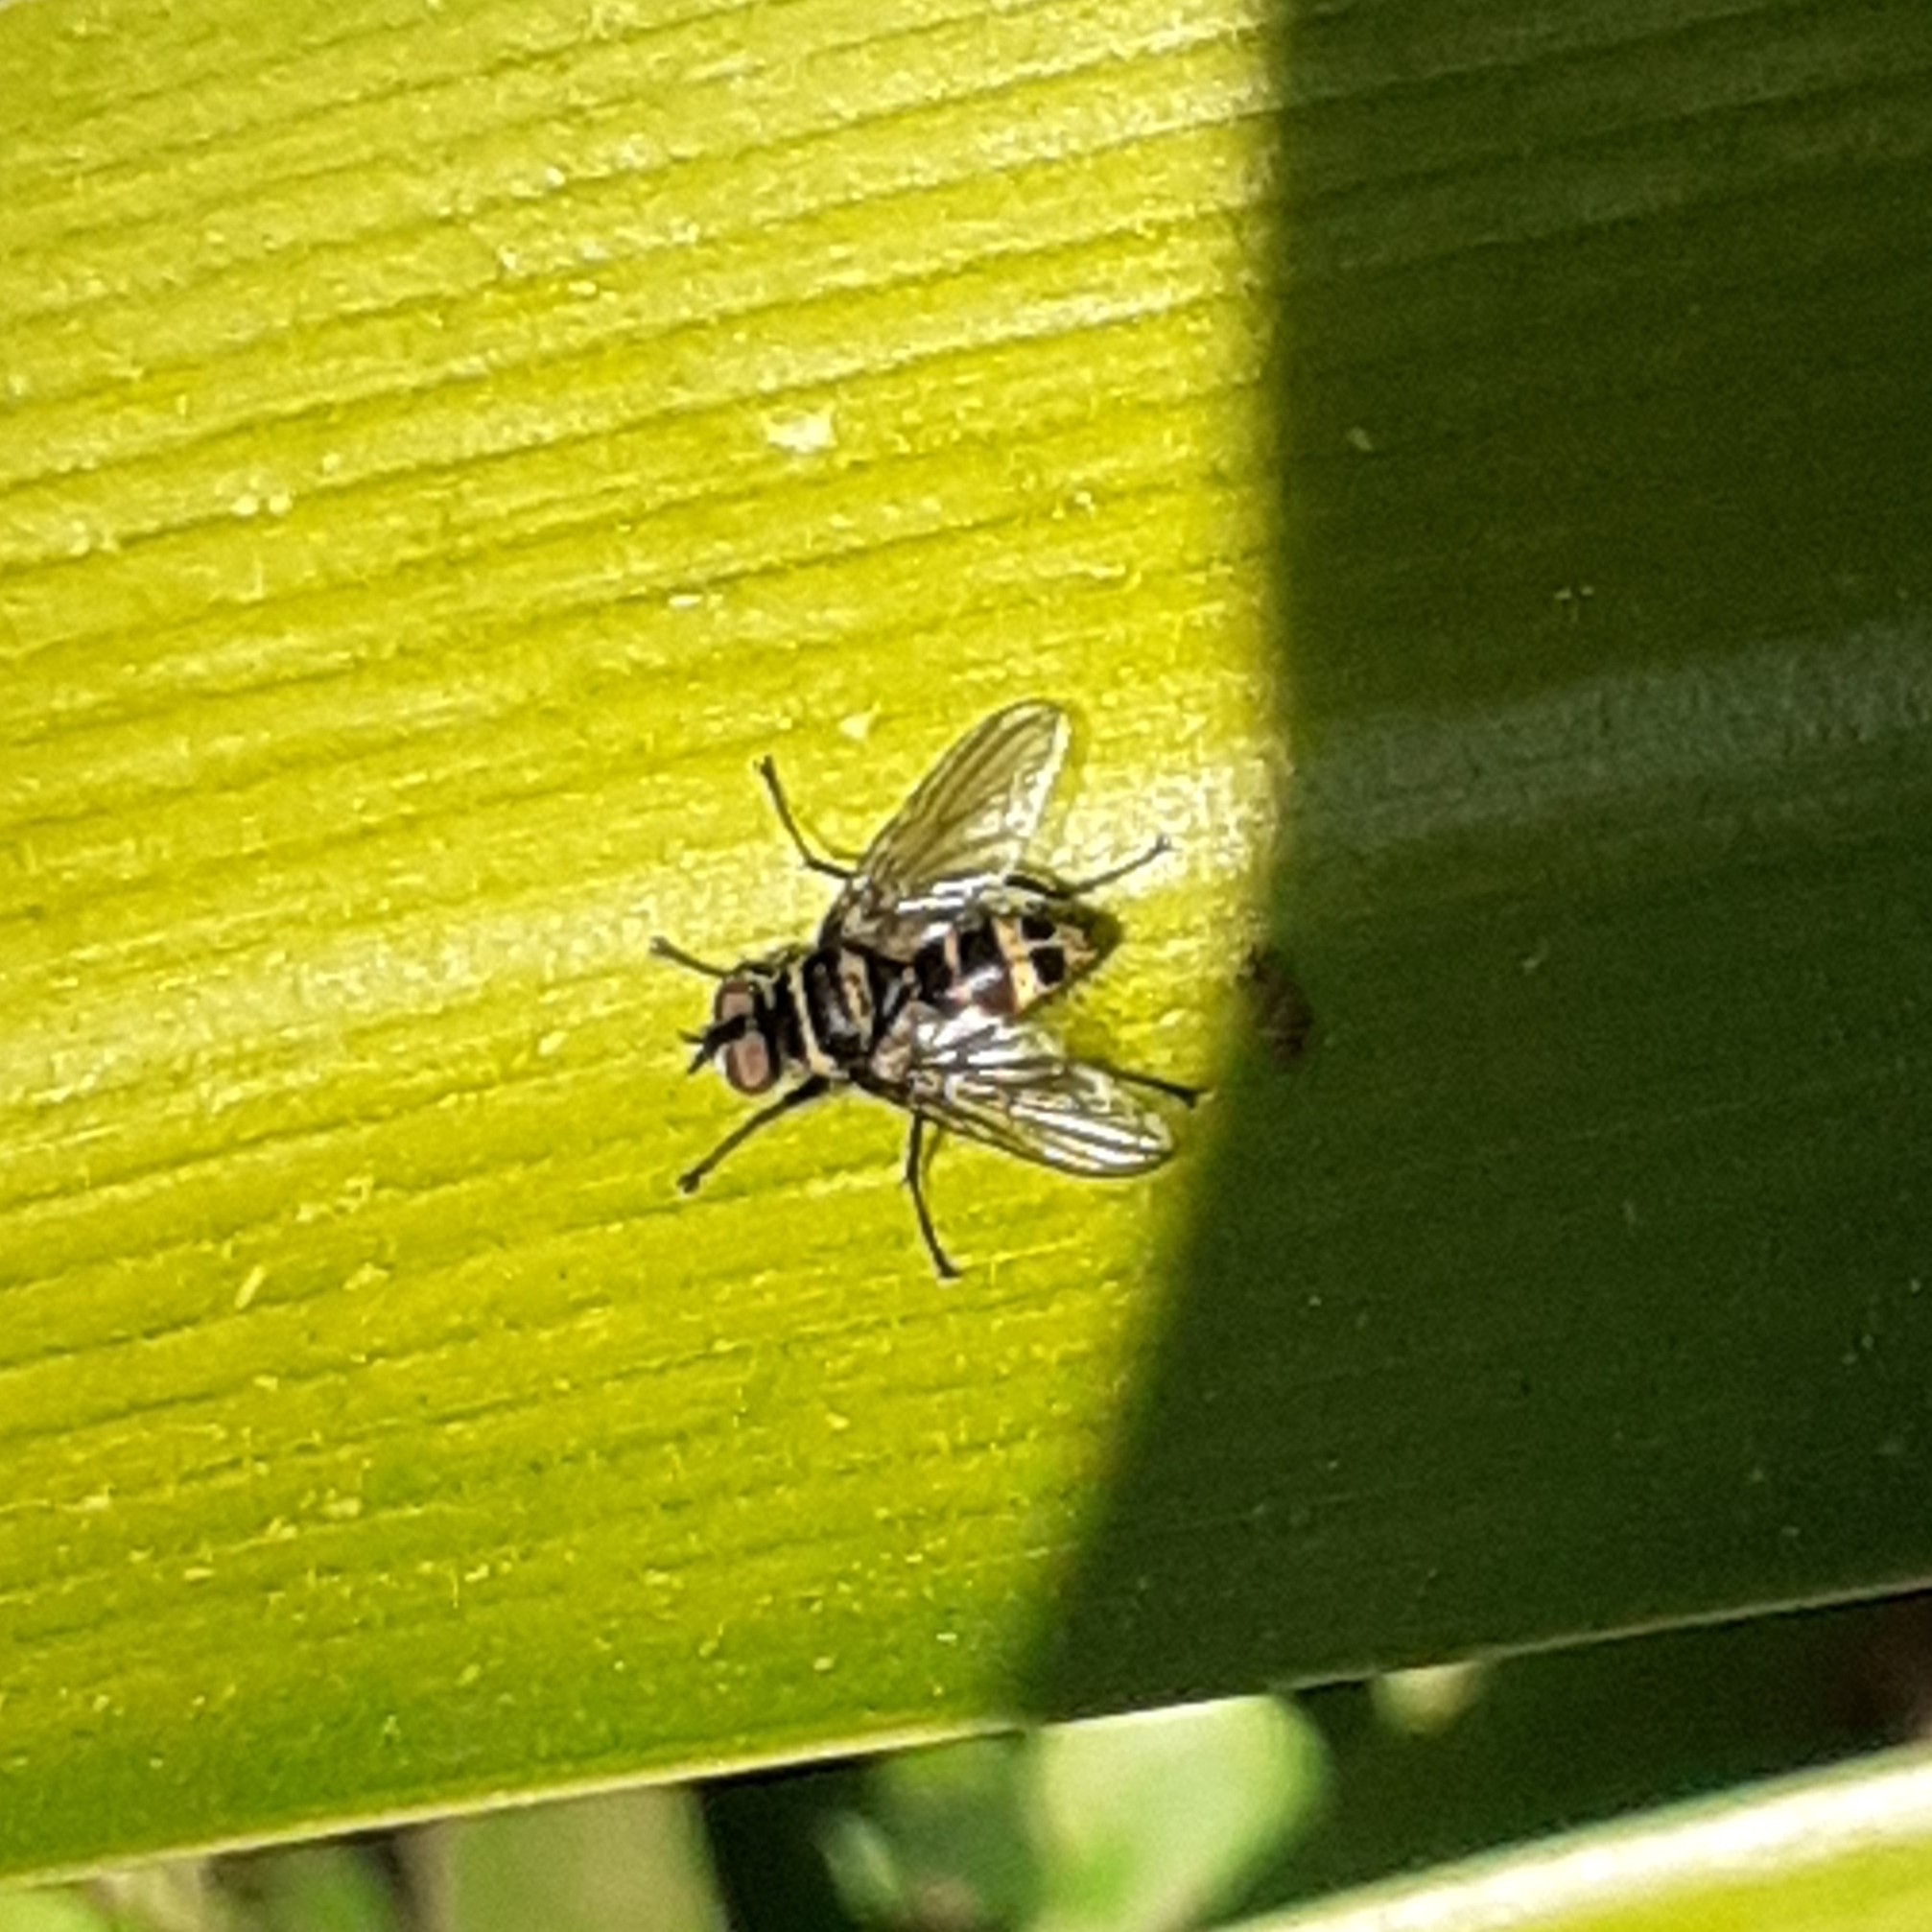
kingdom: Animalia
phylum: Arthropoda
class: Insecta
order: Diptera
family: Tachinidae
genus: Trigonospila
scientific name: Trigonospila brevifacies
